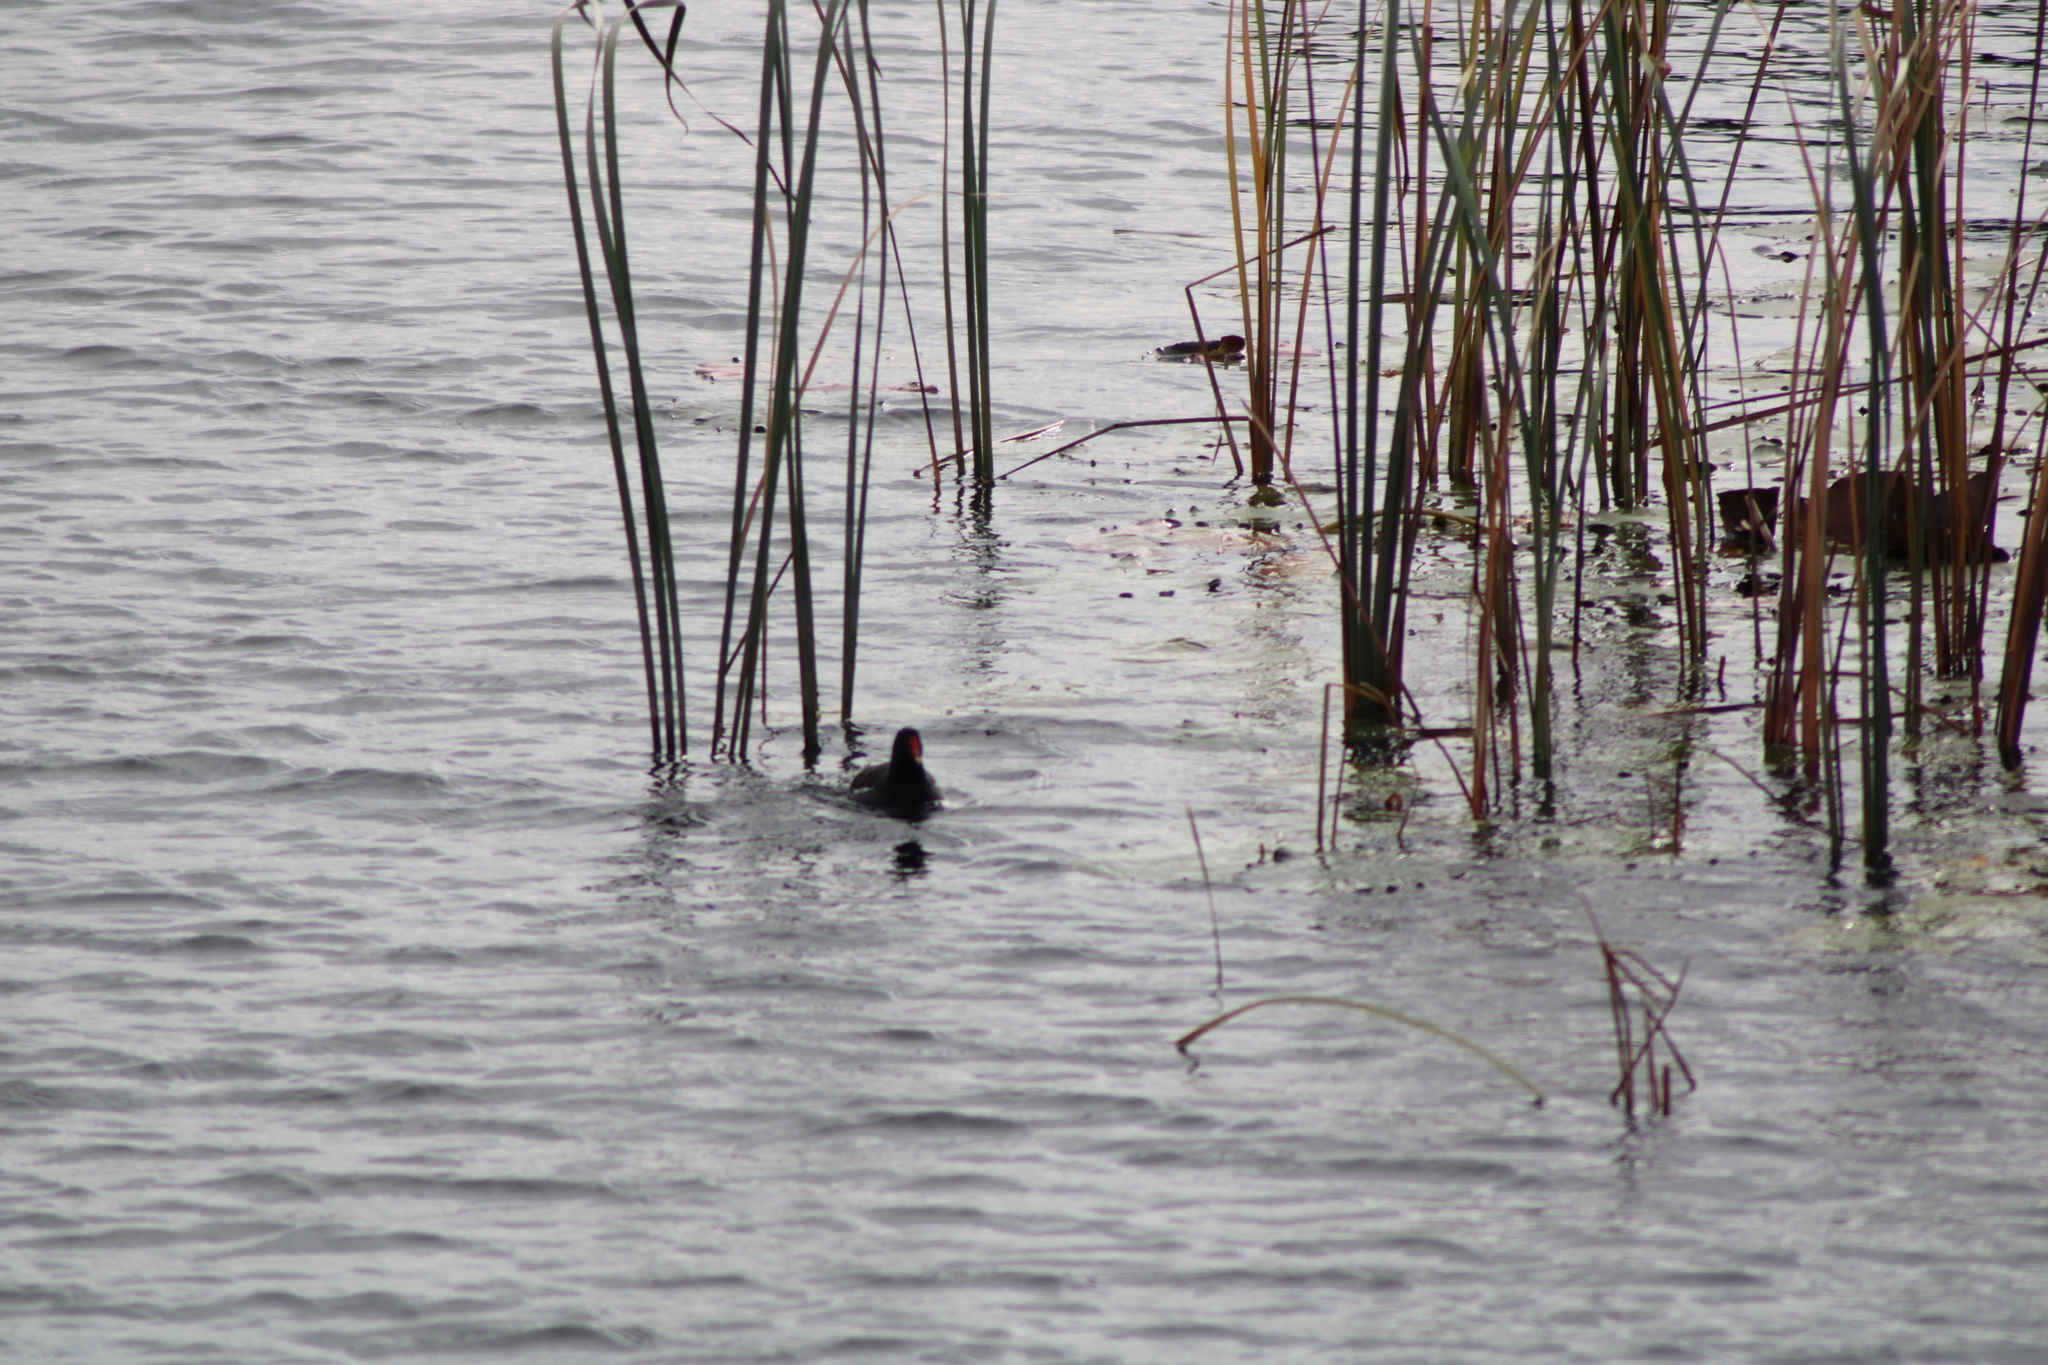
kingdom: Animalia
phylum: Chordata
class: Aves
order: Gruiformes
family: Rallidae
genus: Gallinula
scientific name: Gallinula chloropus
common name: Common moorhen
